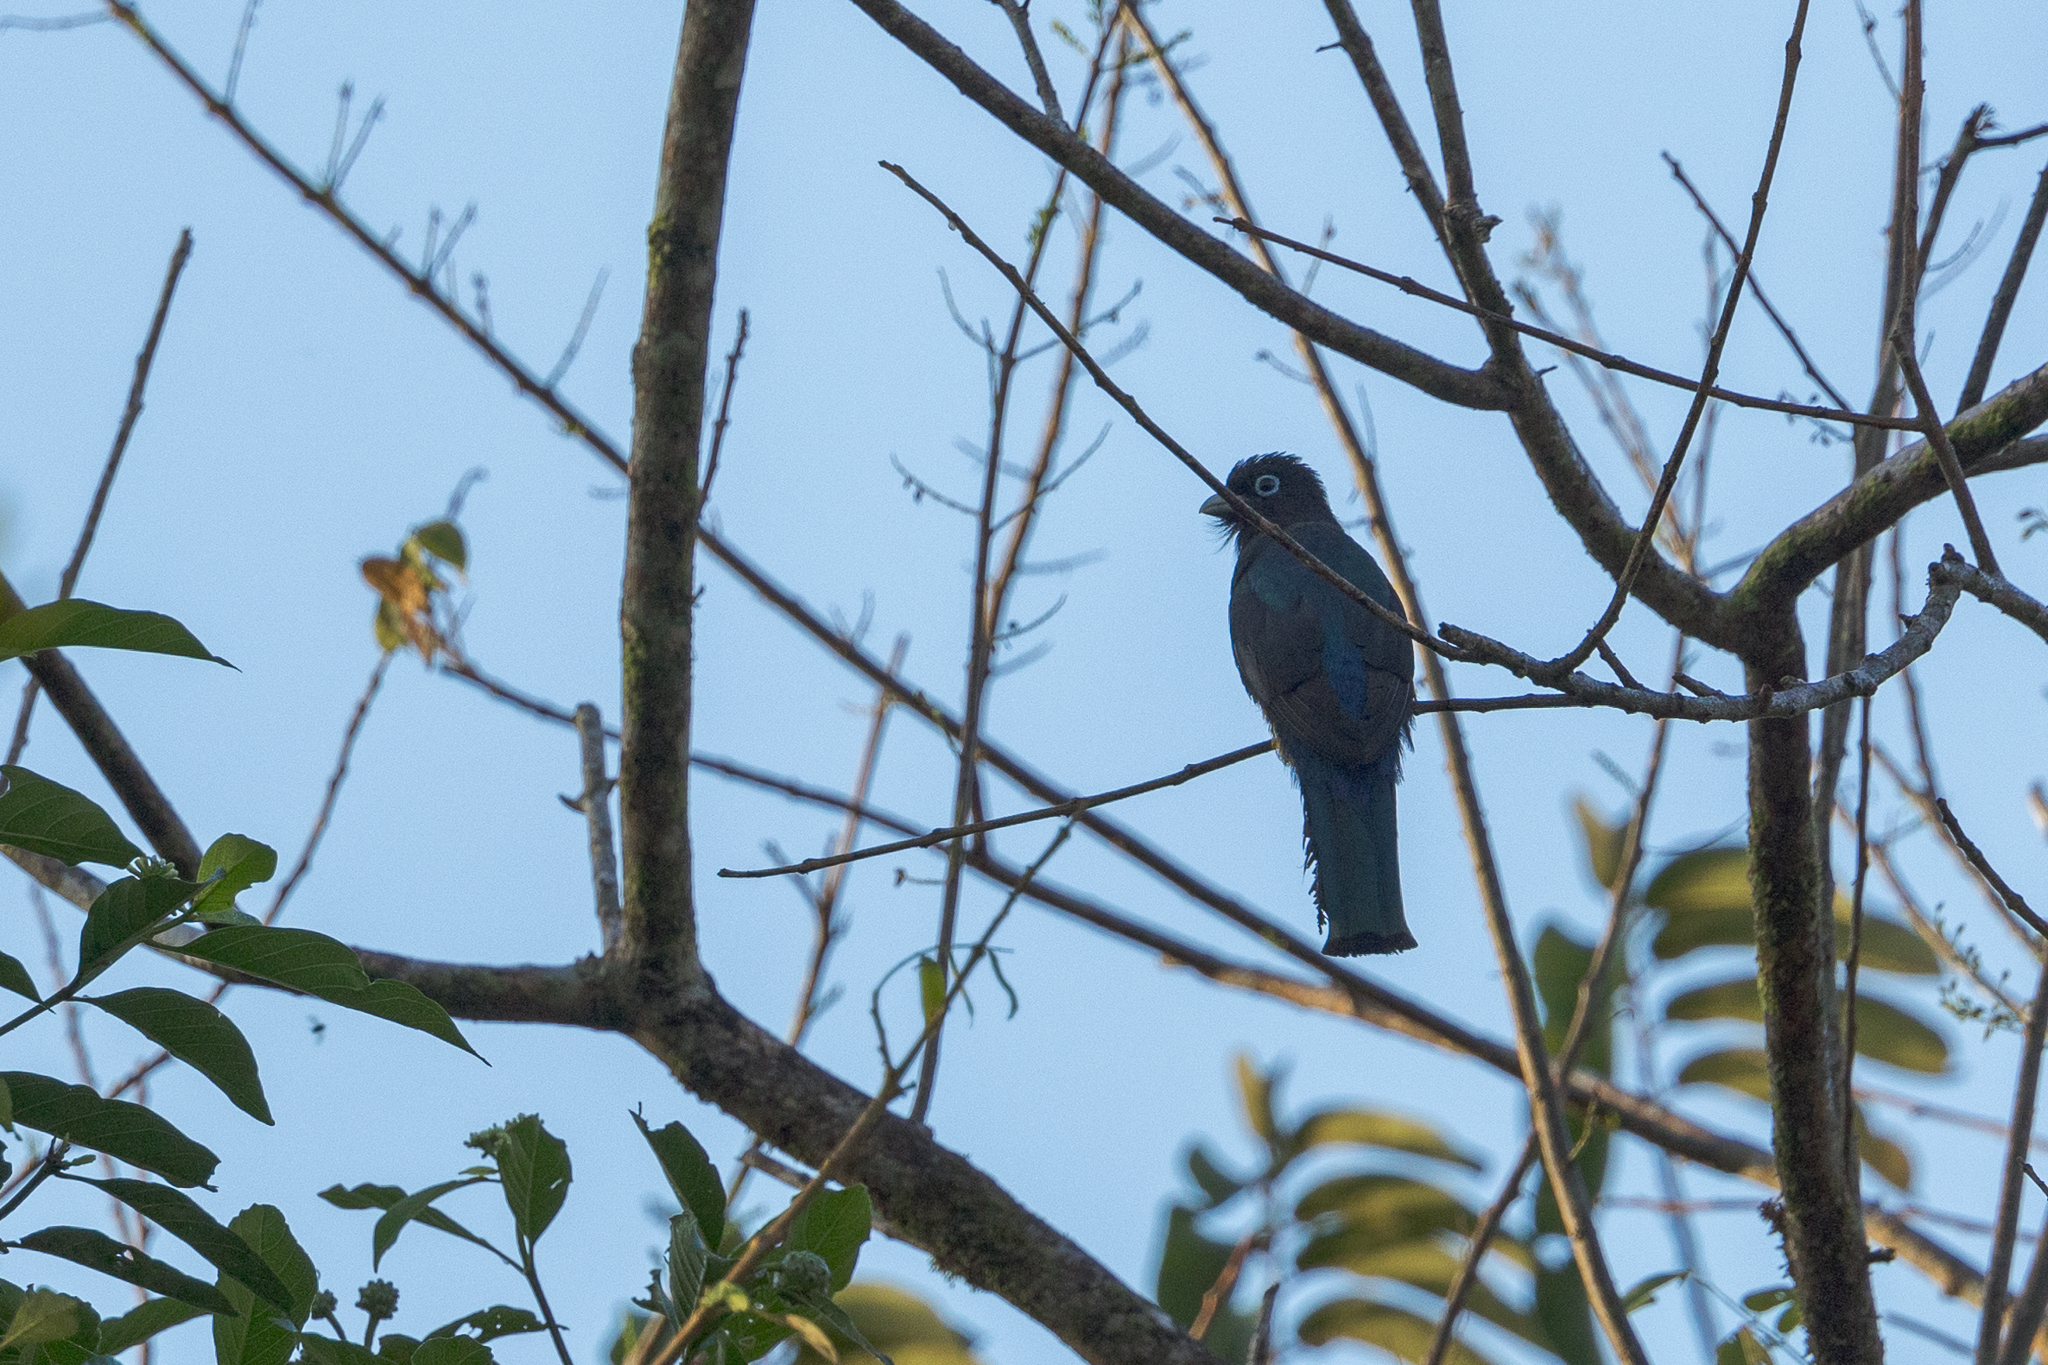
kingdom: Animalia
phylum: Chordata
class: Aves
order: Trogoniformes
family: Trogonidae
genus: Trogon
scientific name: Trogon melanocephalus
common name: Black-headed trogon
